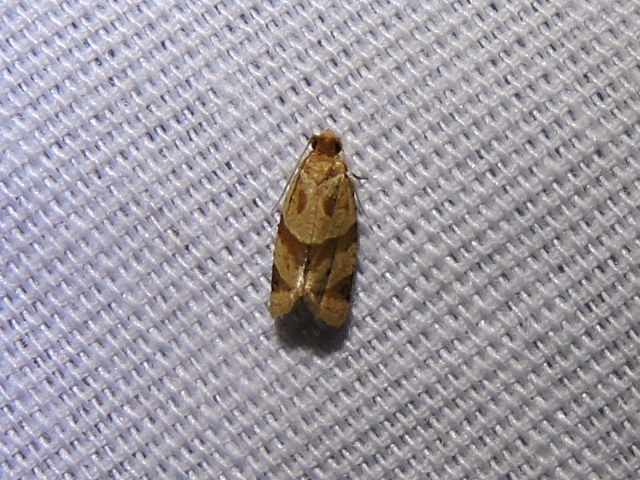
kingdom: Animalia
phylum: Arthropoda
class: Insecta
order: Lepidoptera
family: Tortricidae
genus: Clepsis
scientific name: Clepsis peritana
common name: Garden tortrix
